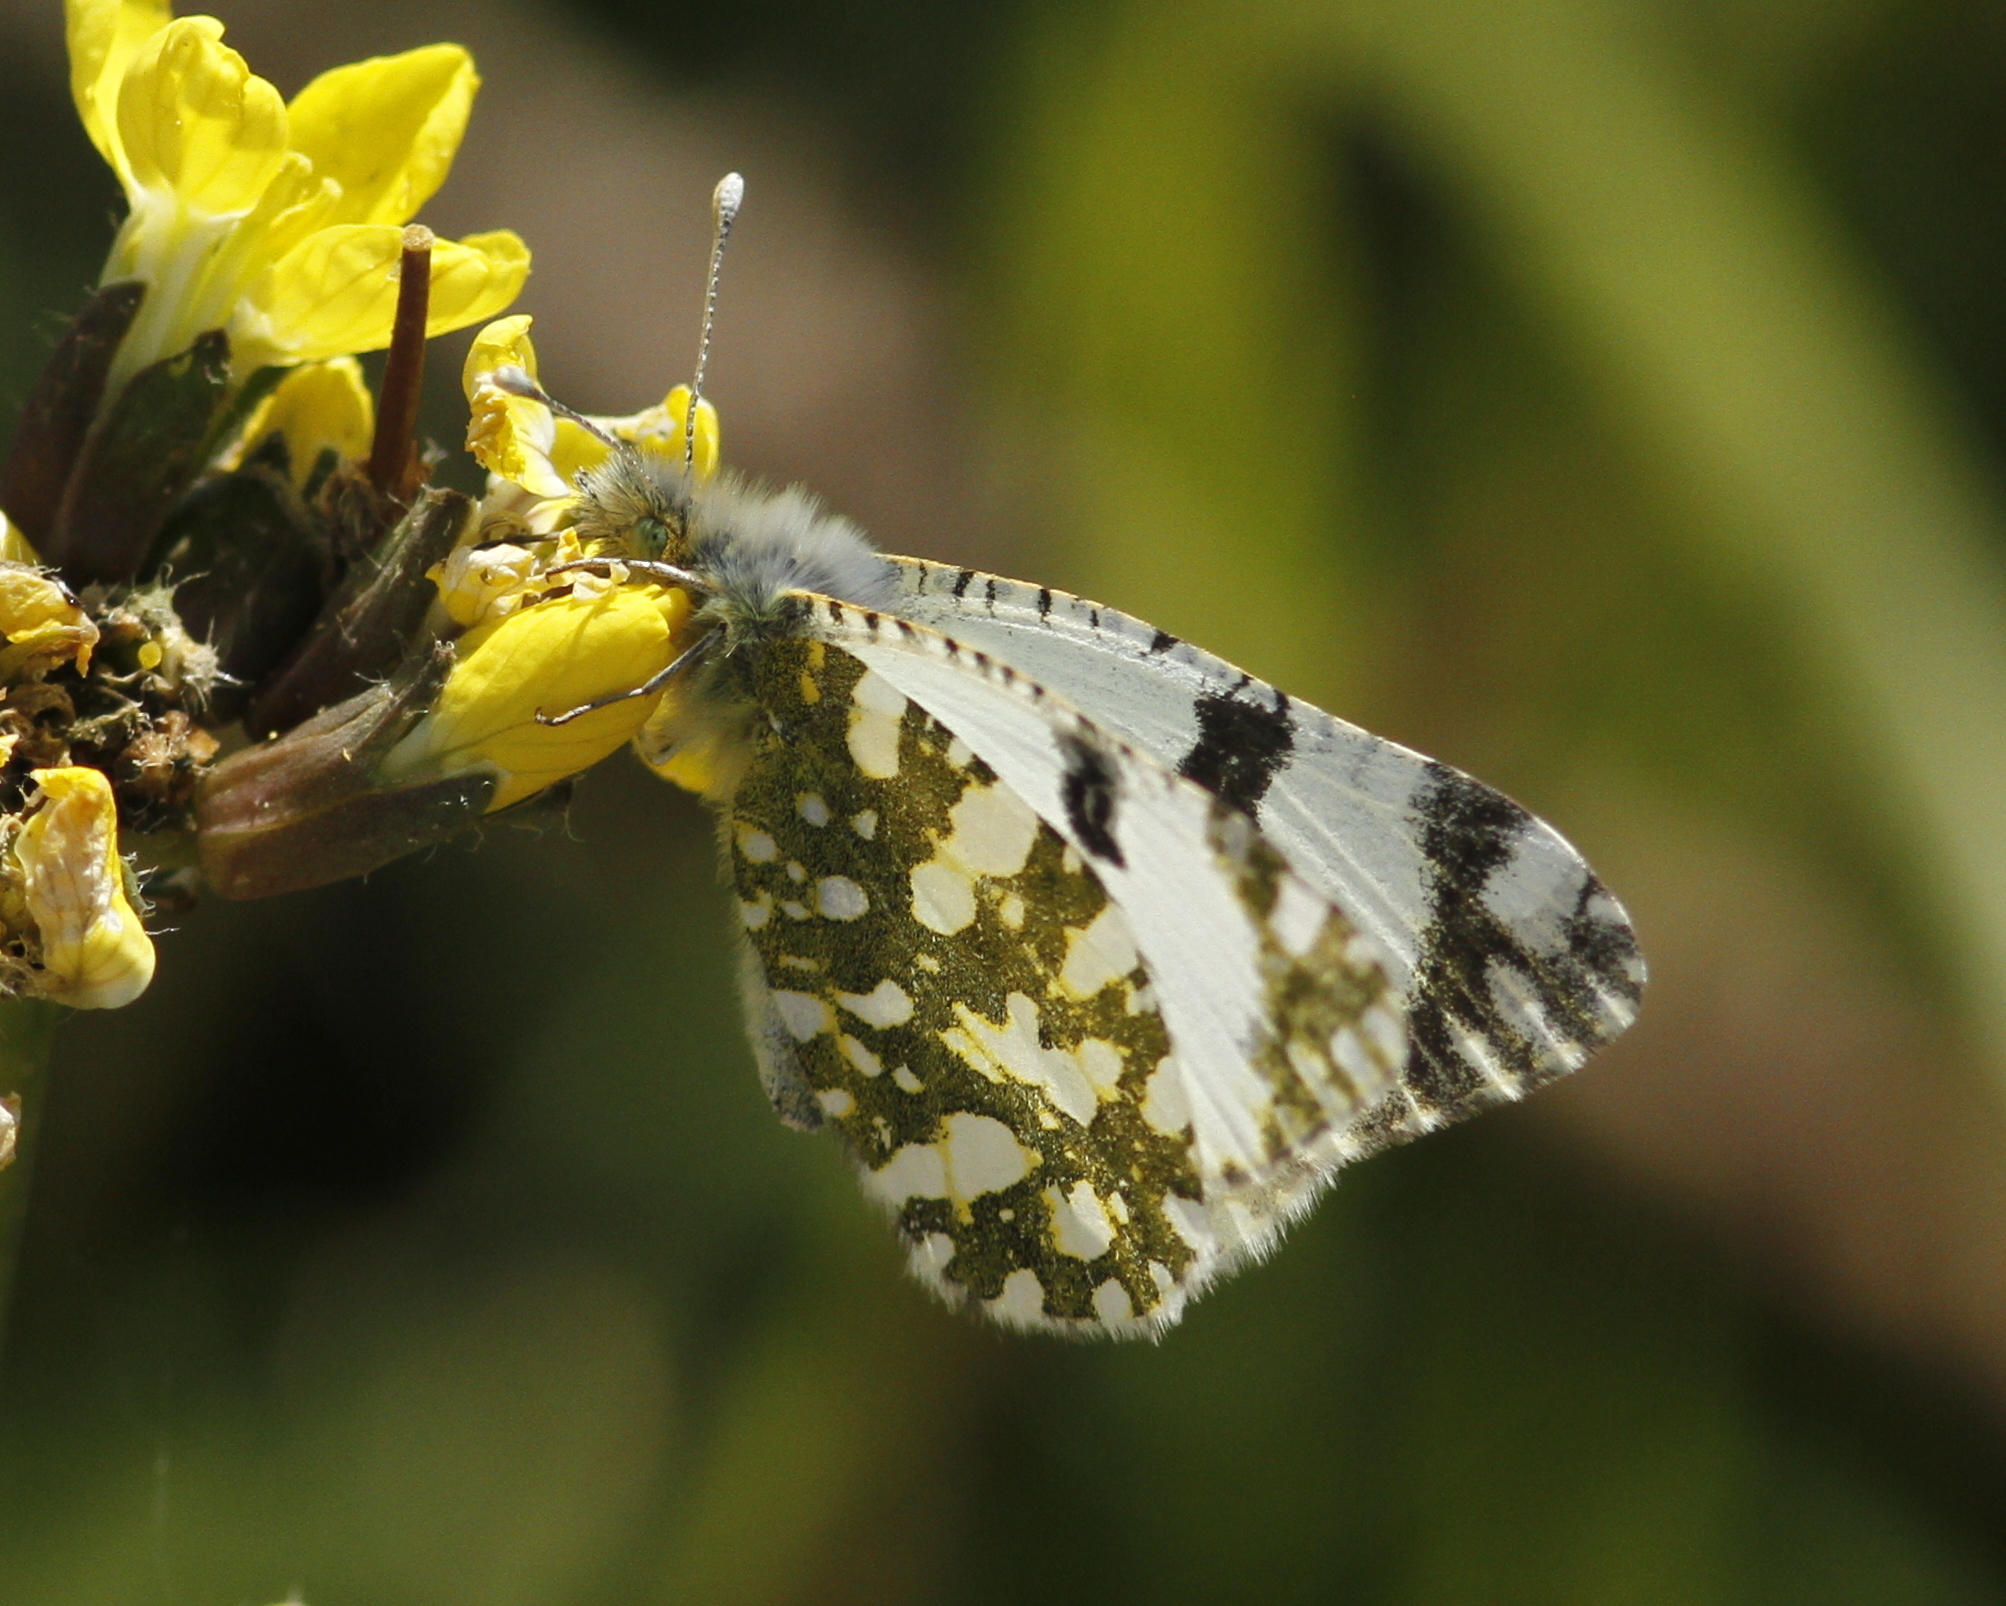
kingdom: Animalia
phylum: Arthropoda
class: Insecta
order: Lepidoptera
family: Pieridae
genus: Euchloe
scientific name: Euchloe crameri
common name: Western dappled white
